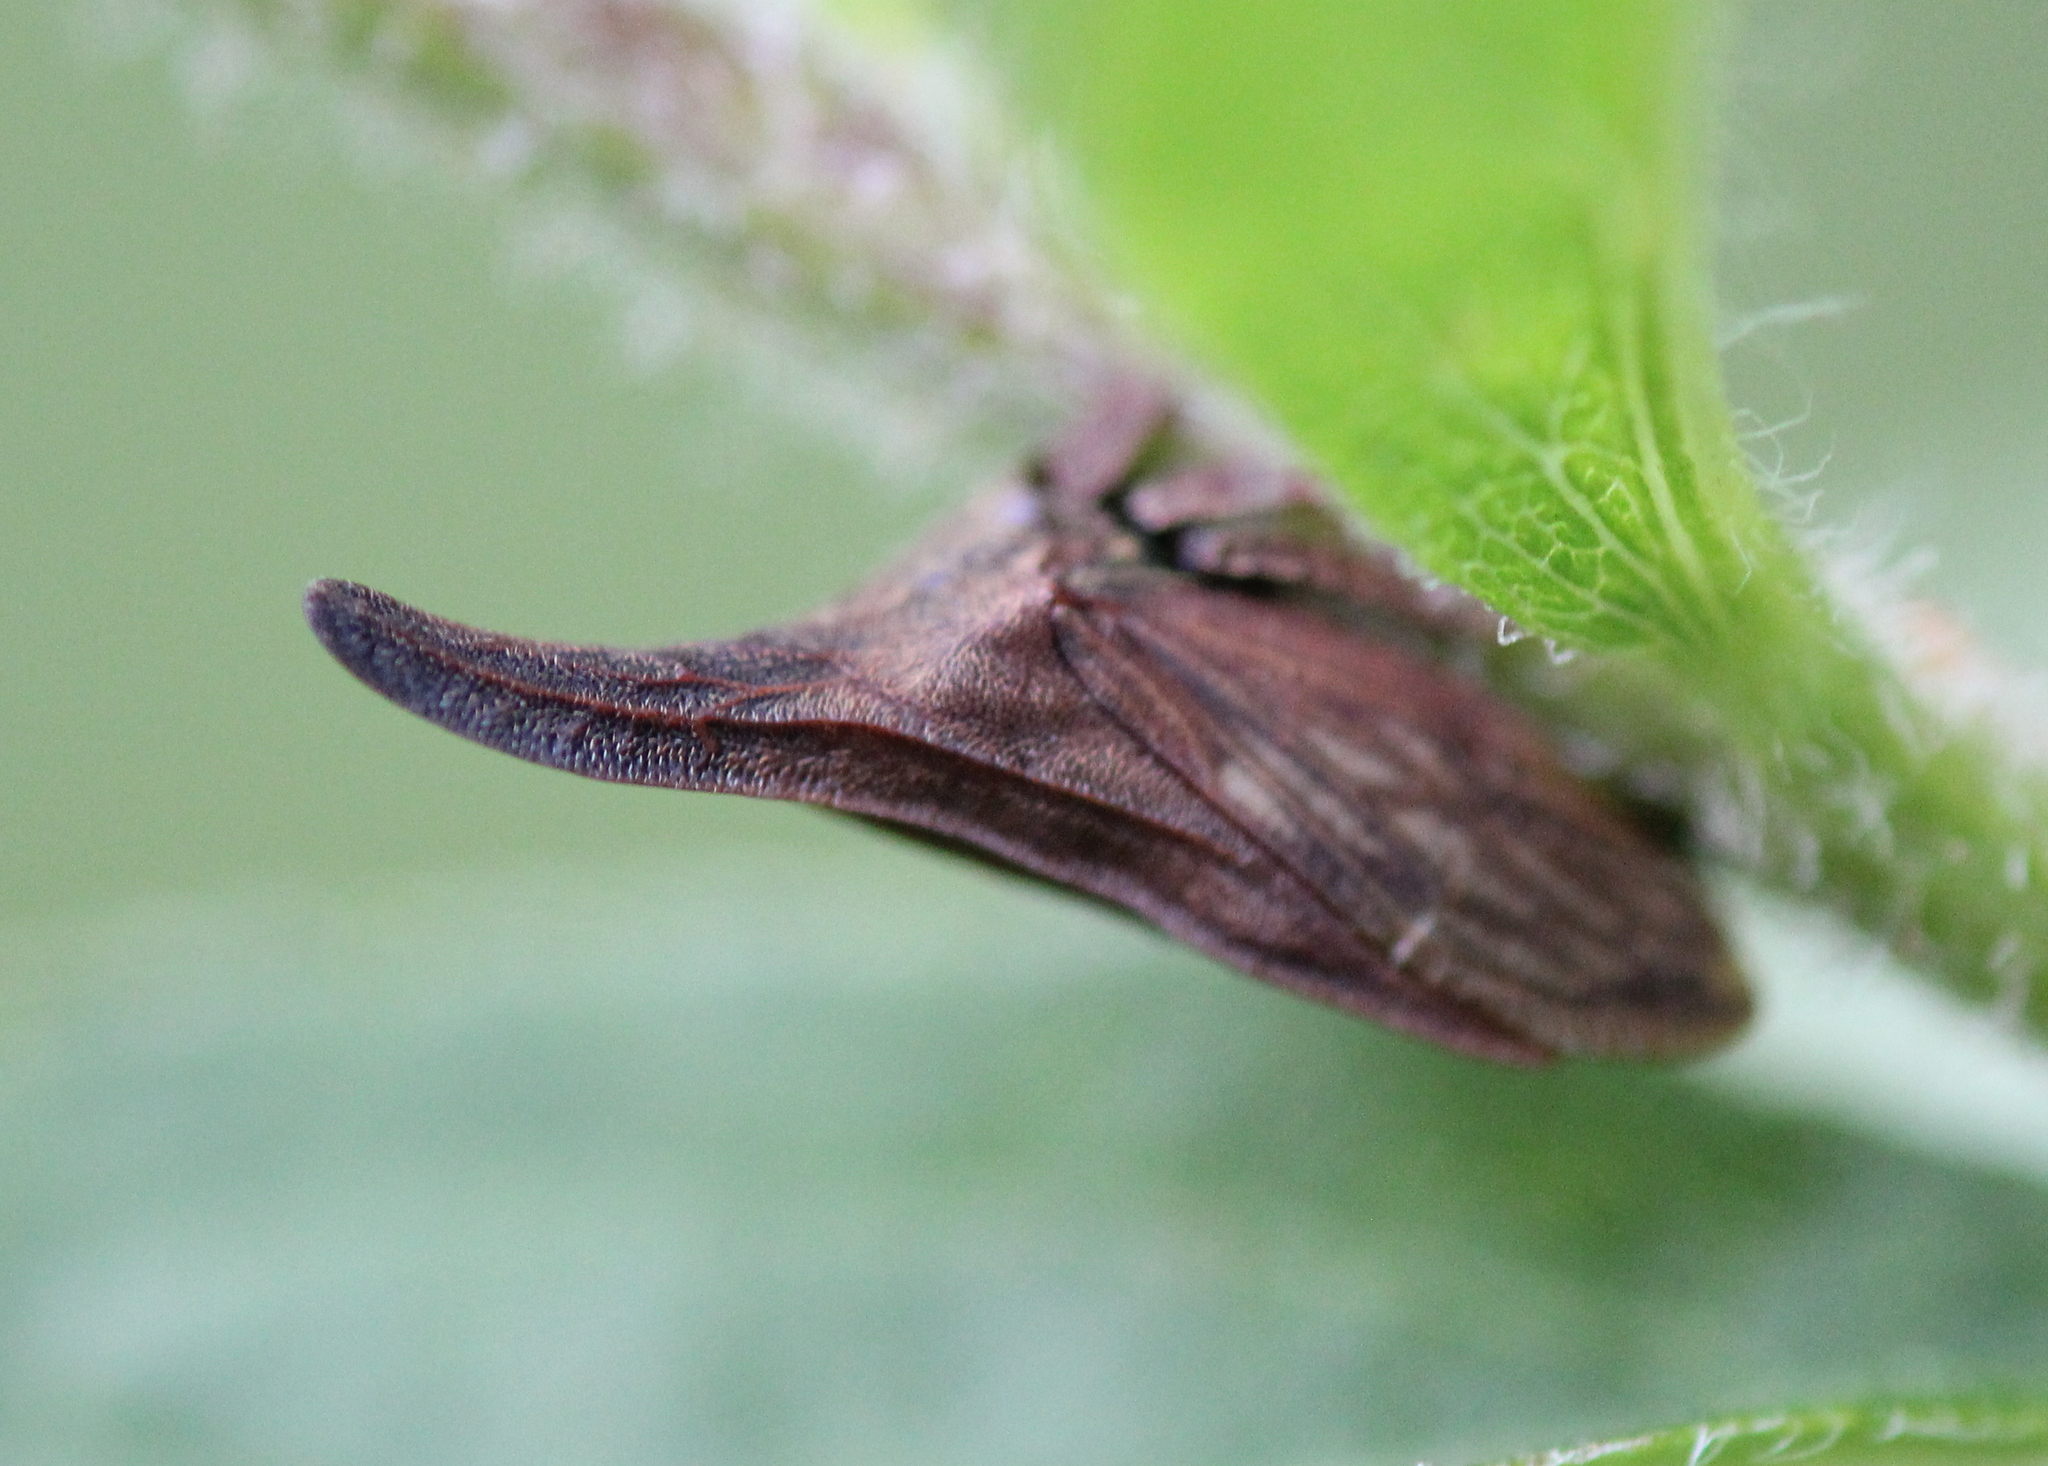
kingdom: Animalia
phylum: Arthropoda
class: Insecta
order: Hemiptera
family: Membracidae
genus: Enchenopa
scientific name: Enchenopa latipes
